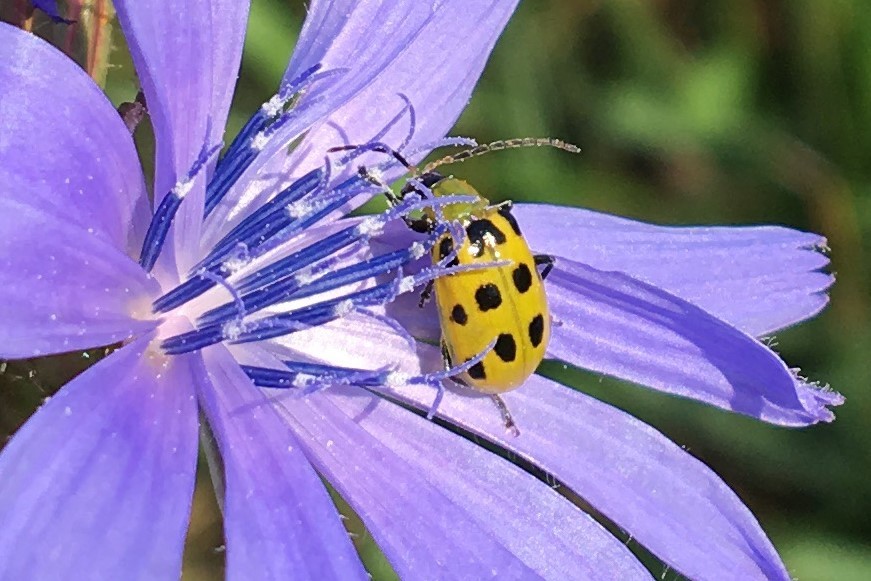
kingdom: Animalia
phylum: Arthropoda
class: Insecta
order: Coleoptera
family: Chrysomelidae
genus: Diabrotica
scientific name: Diabrotica undecimpunctata
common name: Spotted cucumber beetle
